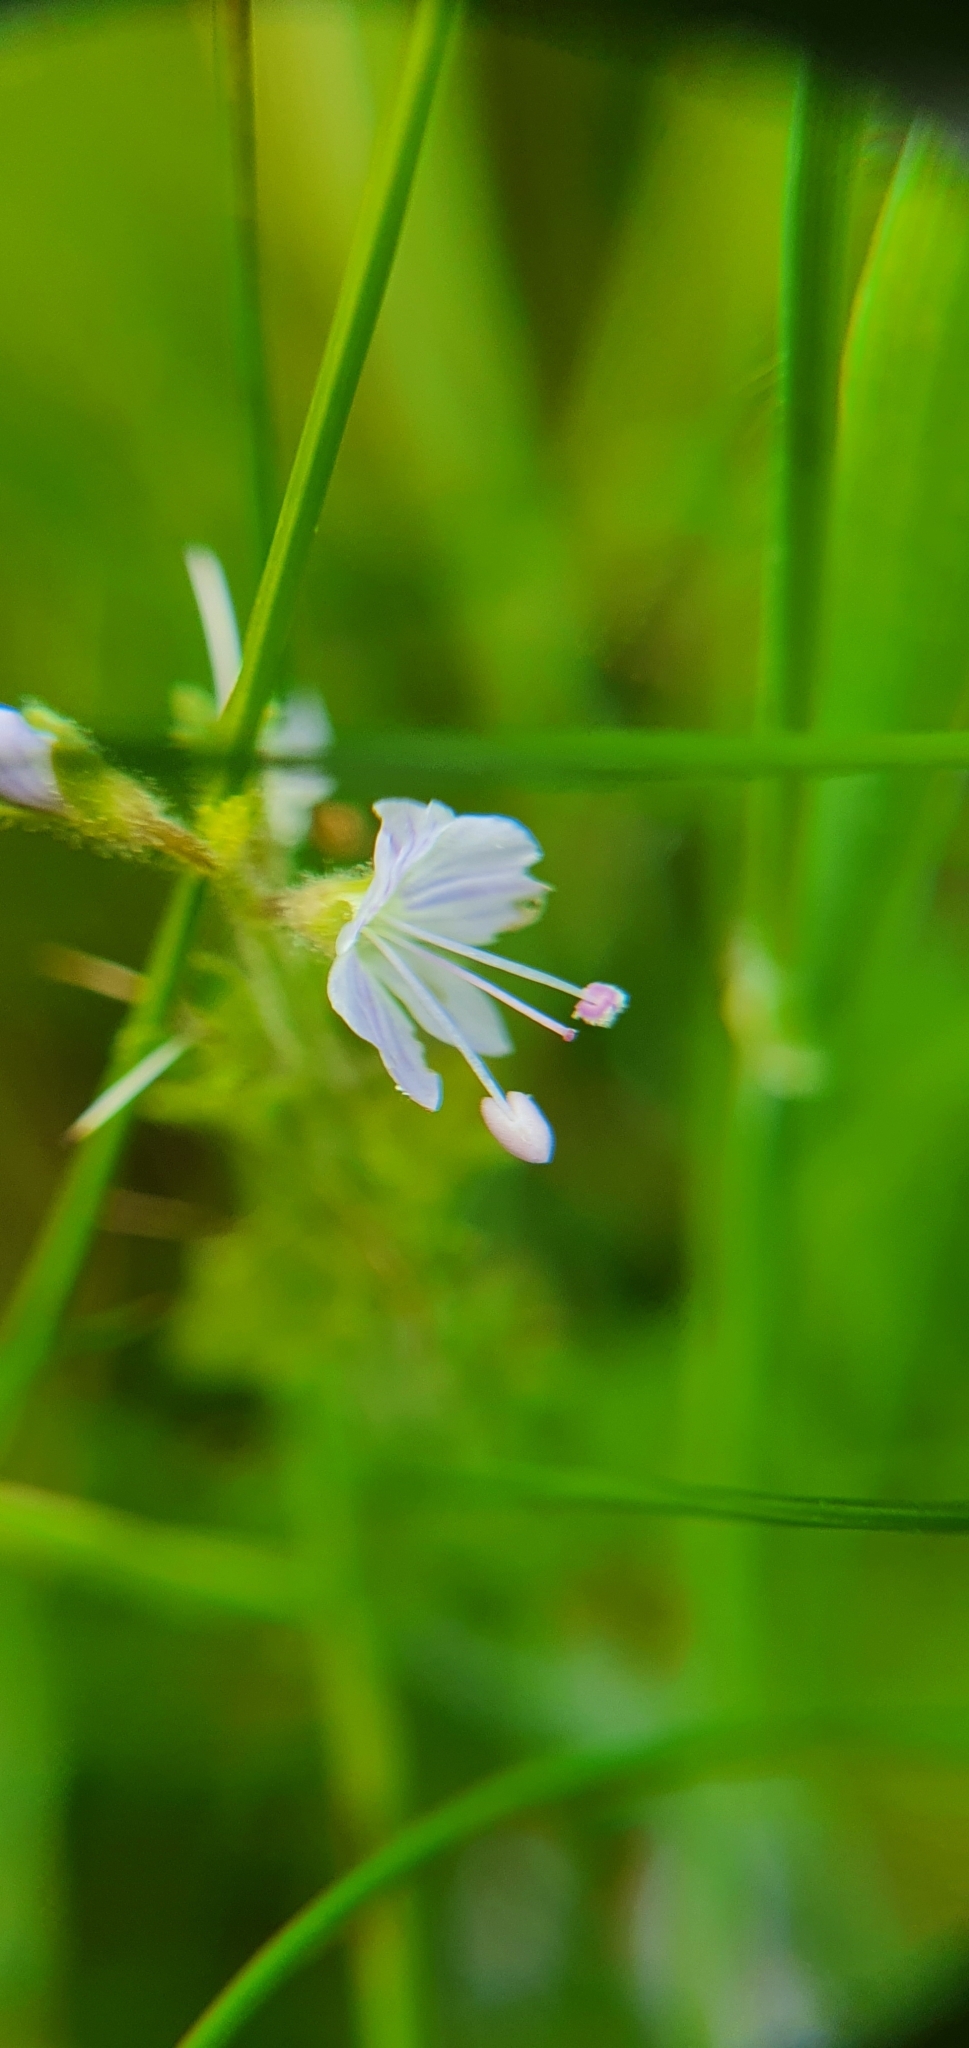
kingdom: Plantae
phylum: Tracheophyta
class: Magnoliopsida
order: Lamiales
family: Plantaginaceae
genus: Veronica
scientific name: Veronica officinalis
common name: Common speedwell
